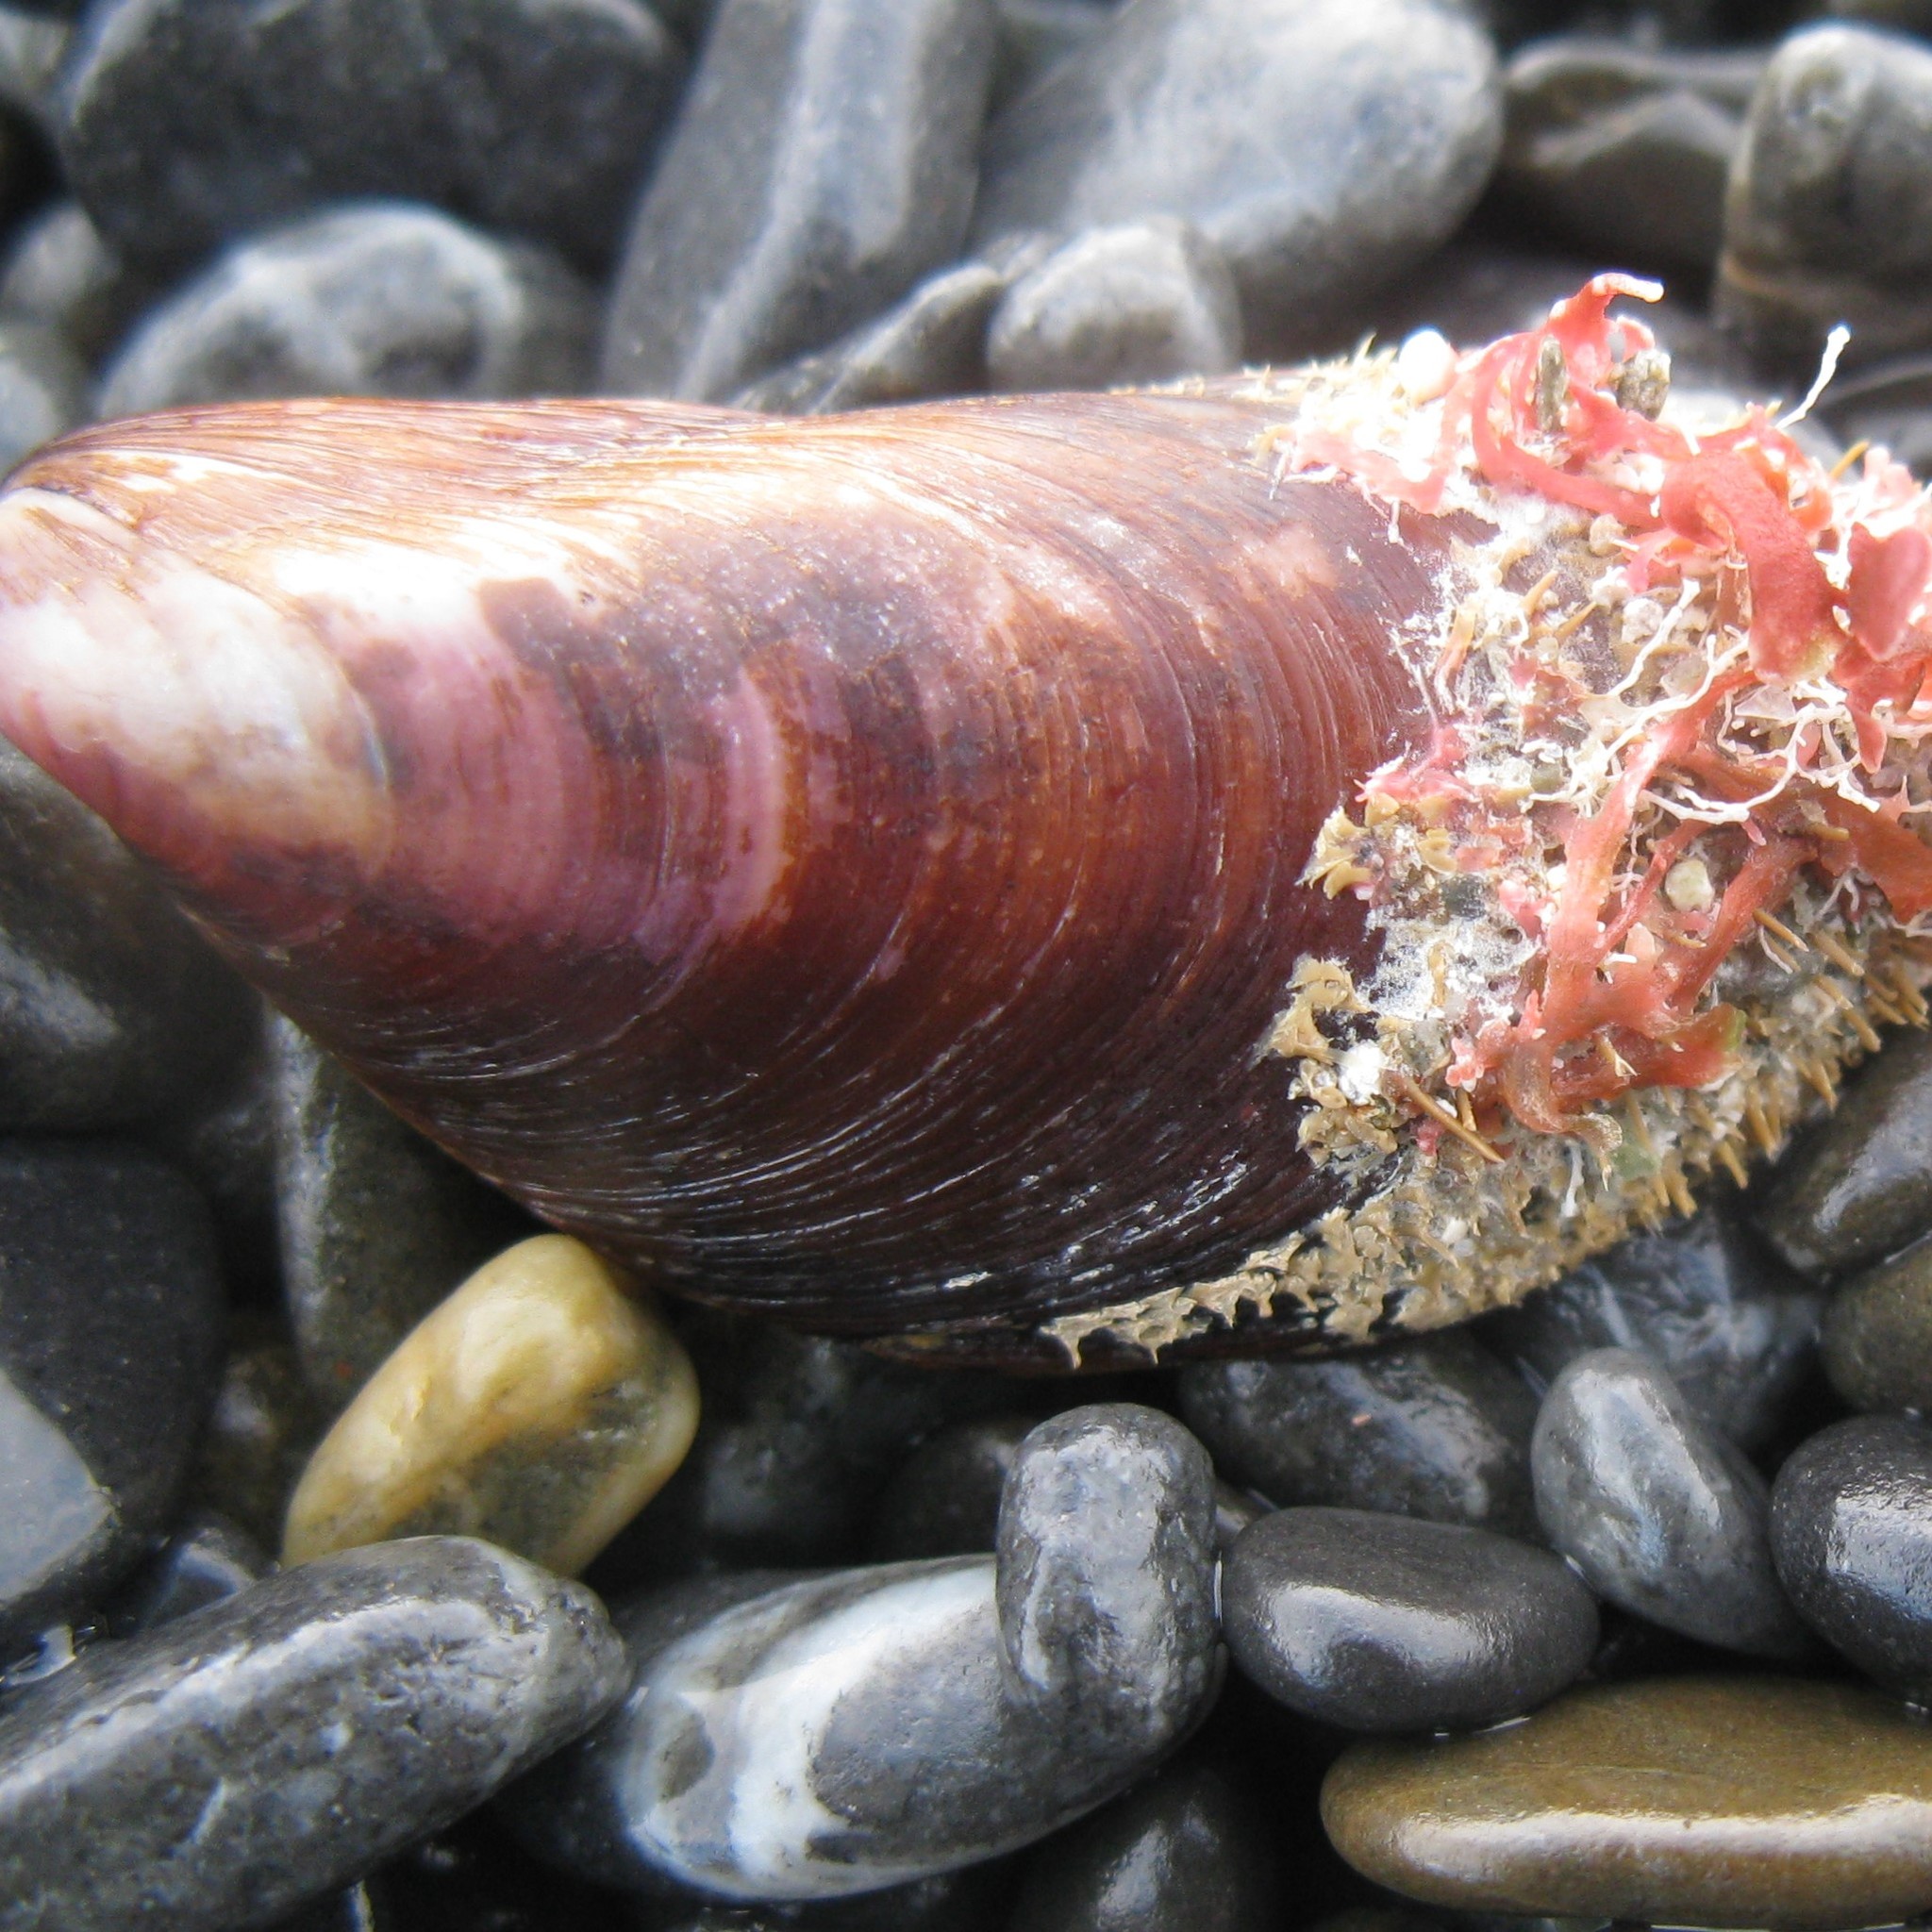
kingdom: Animalia
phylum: Mollusca
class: Bivalvia
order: Mytilida
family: Mytilidae
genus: Modiolus
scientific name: Modiolus areolatus
